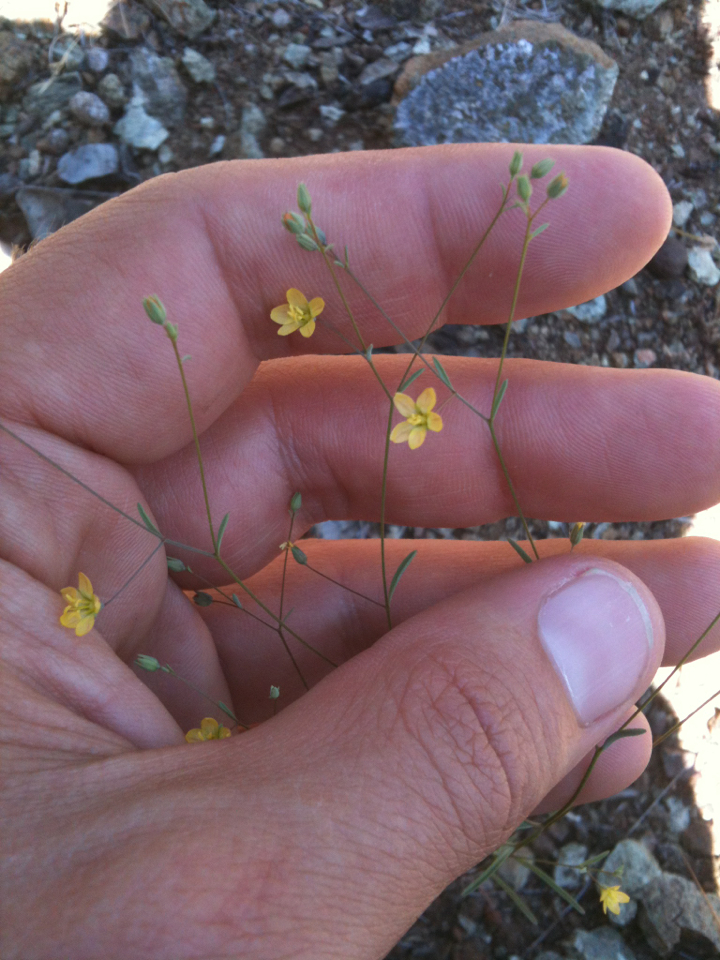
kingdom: Plantae
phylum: Tracheophyta
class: Magnoliopsida
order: Malpighiales
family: Linaceae
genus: Hesperolinon
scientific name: Hesperolinon breweri
